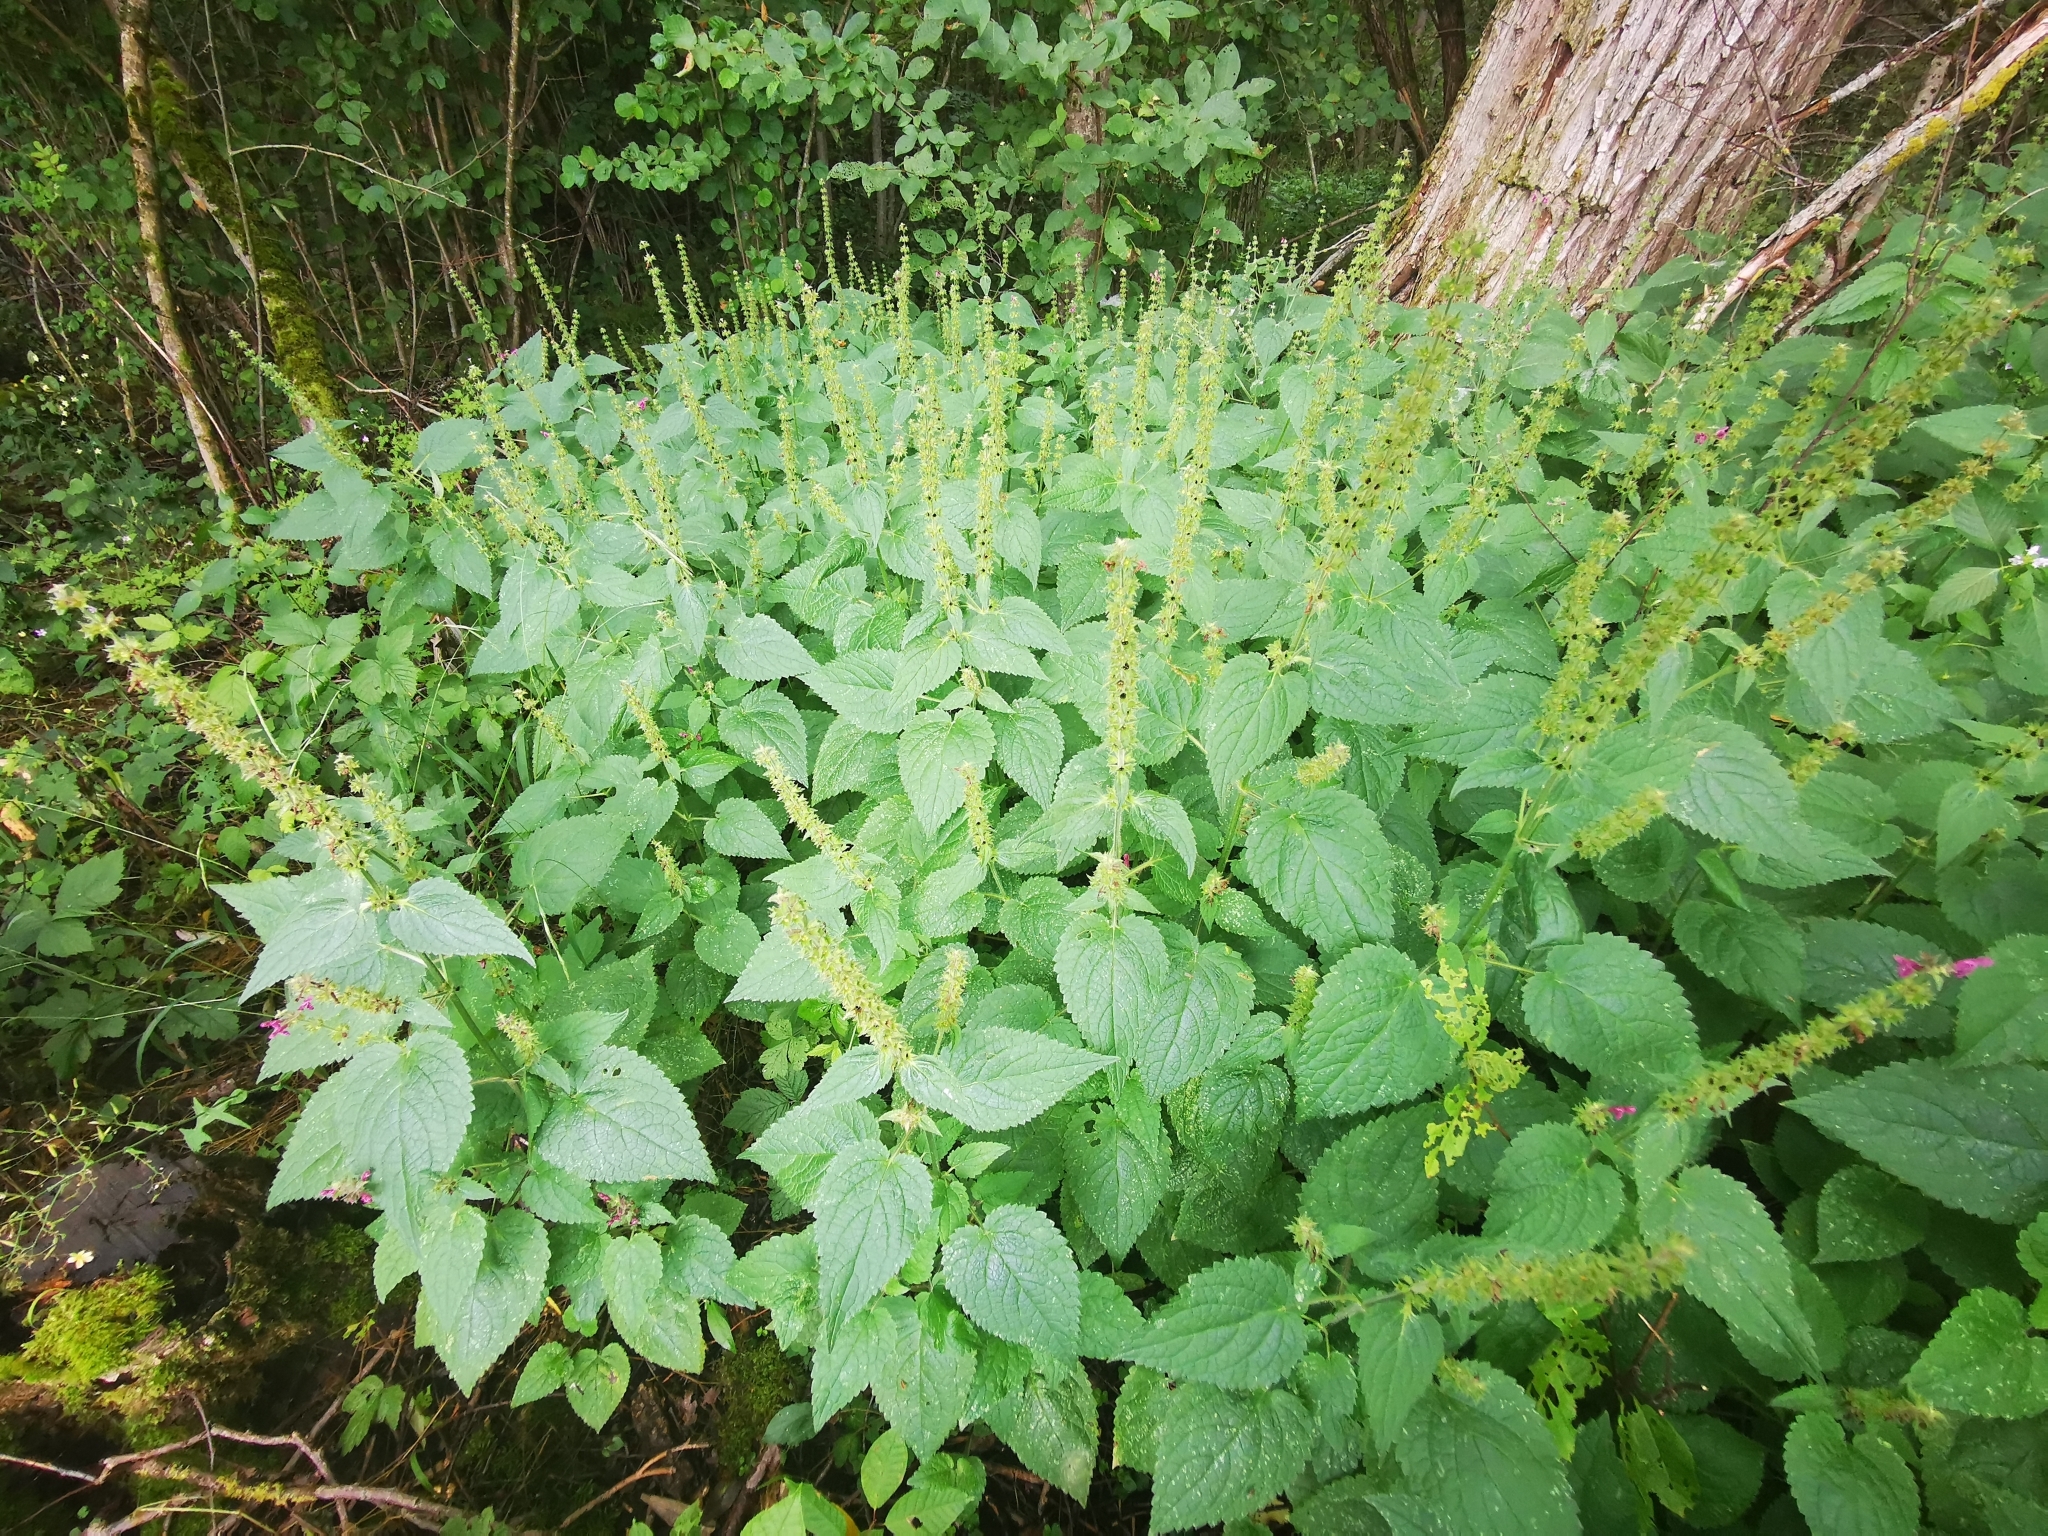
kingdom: Plantae
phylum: Tracheophyta
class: Magnoliopsida
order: Lamiales
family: Lamiaceae
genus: Stachys
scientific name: Stachys sylvatica
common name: Hedge woundwort
